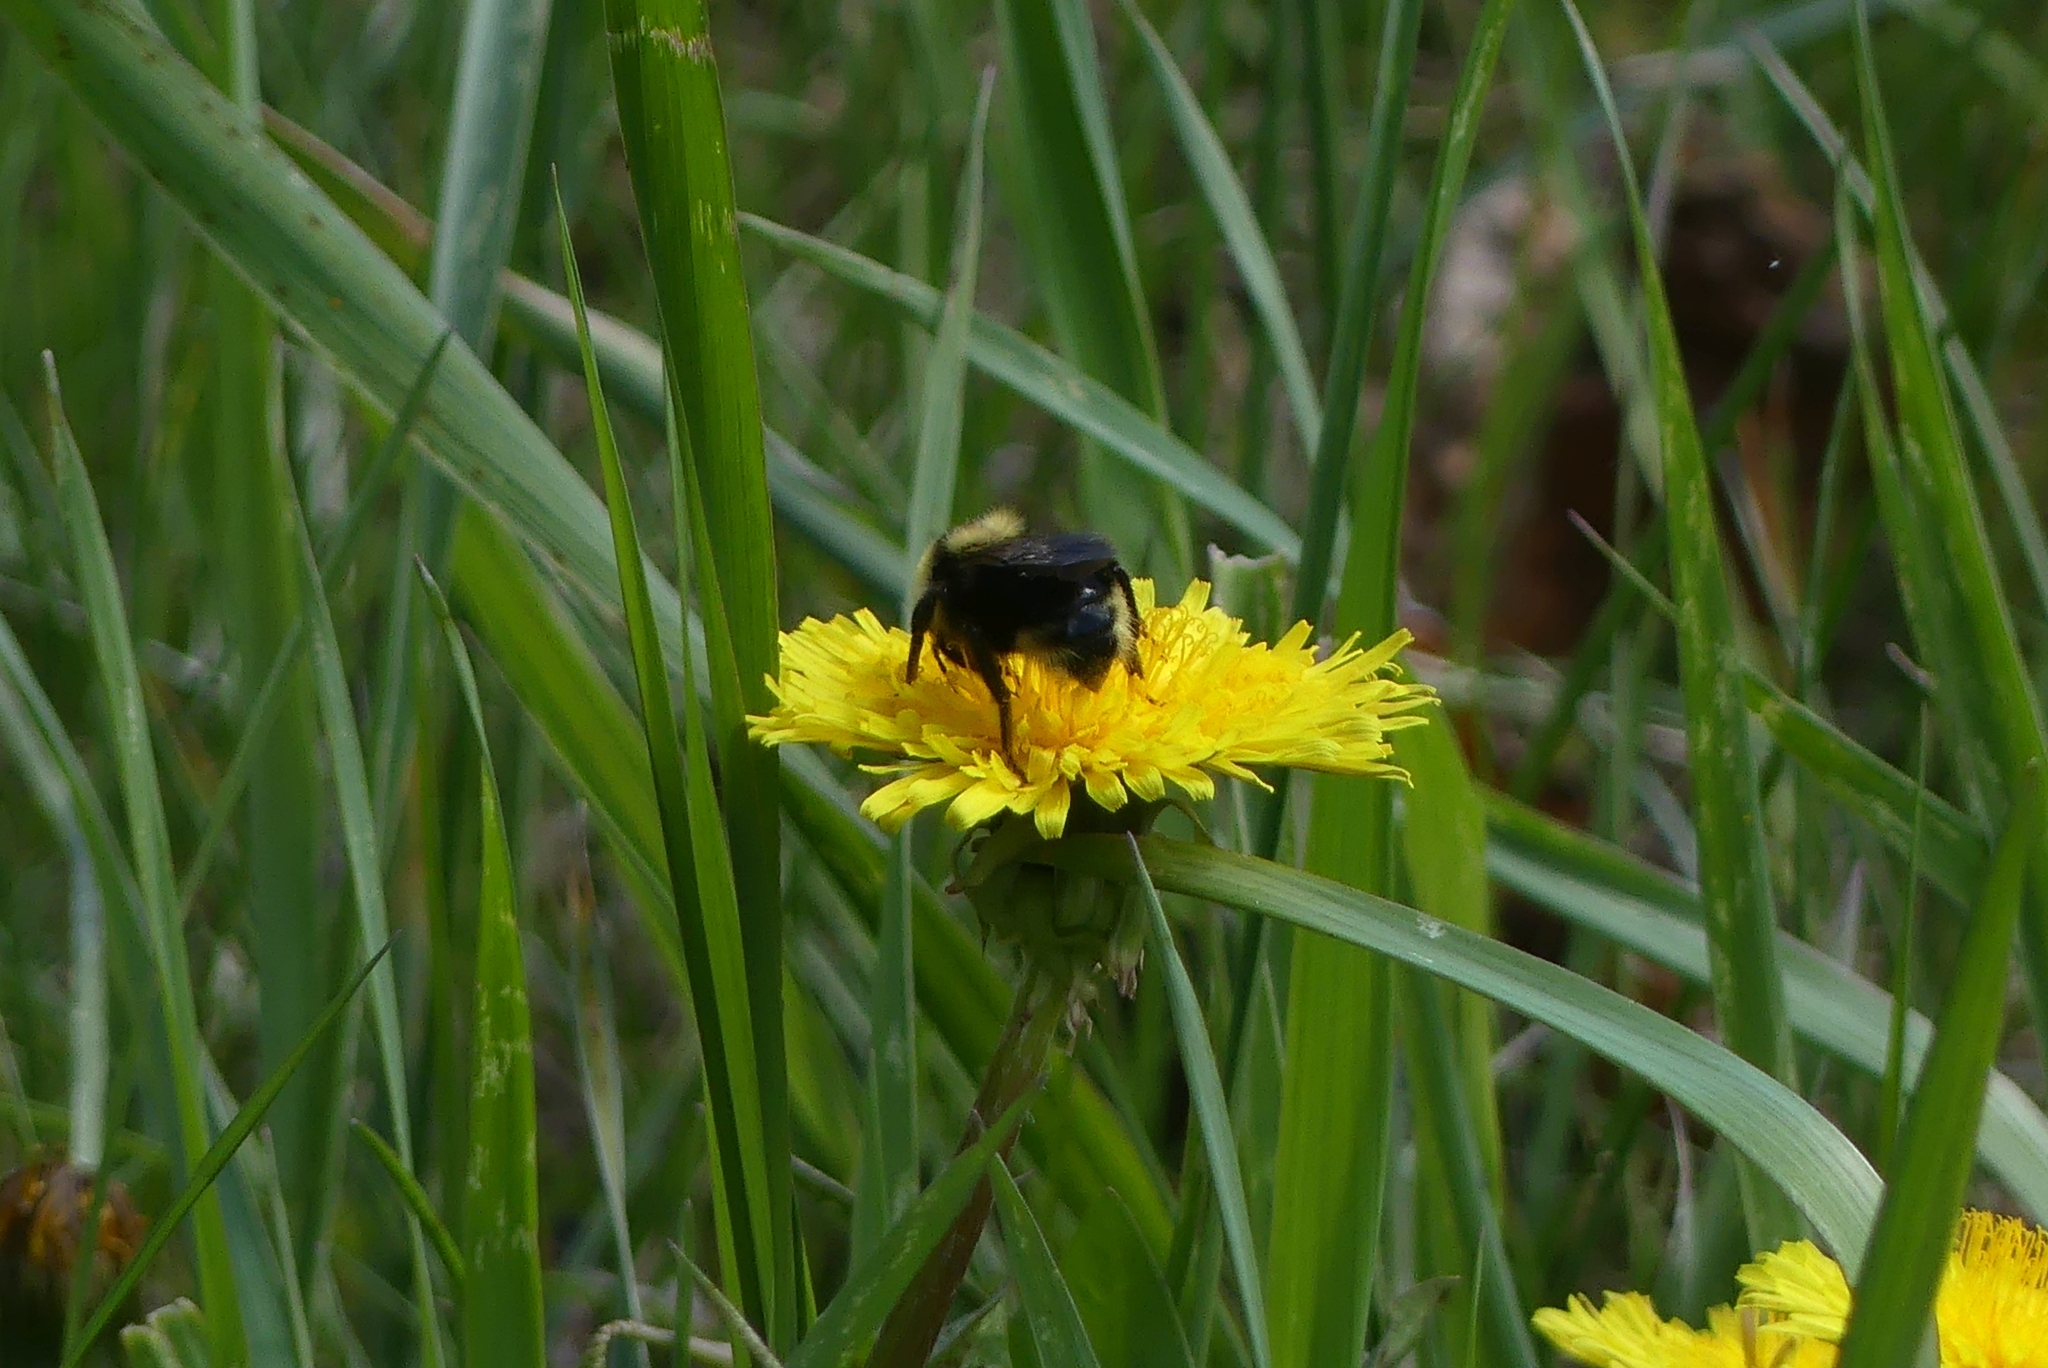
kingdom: Animalia
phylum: Arthropoda
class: Insecta
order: Hymenoptera
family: Apidae
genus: Bombus
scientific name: Bombus insularis
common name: Indiscriminate cuckoo bumble bee
